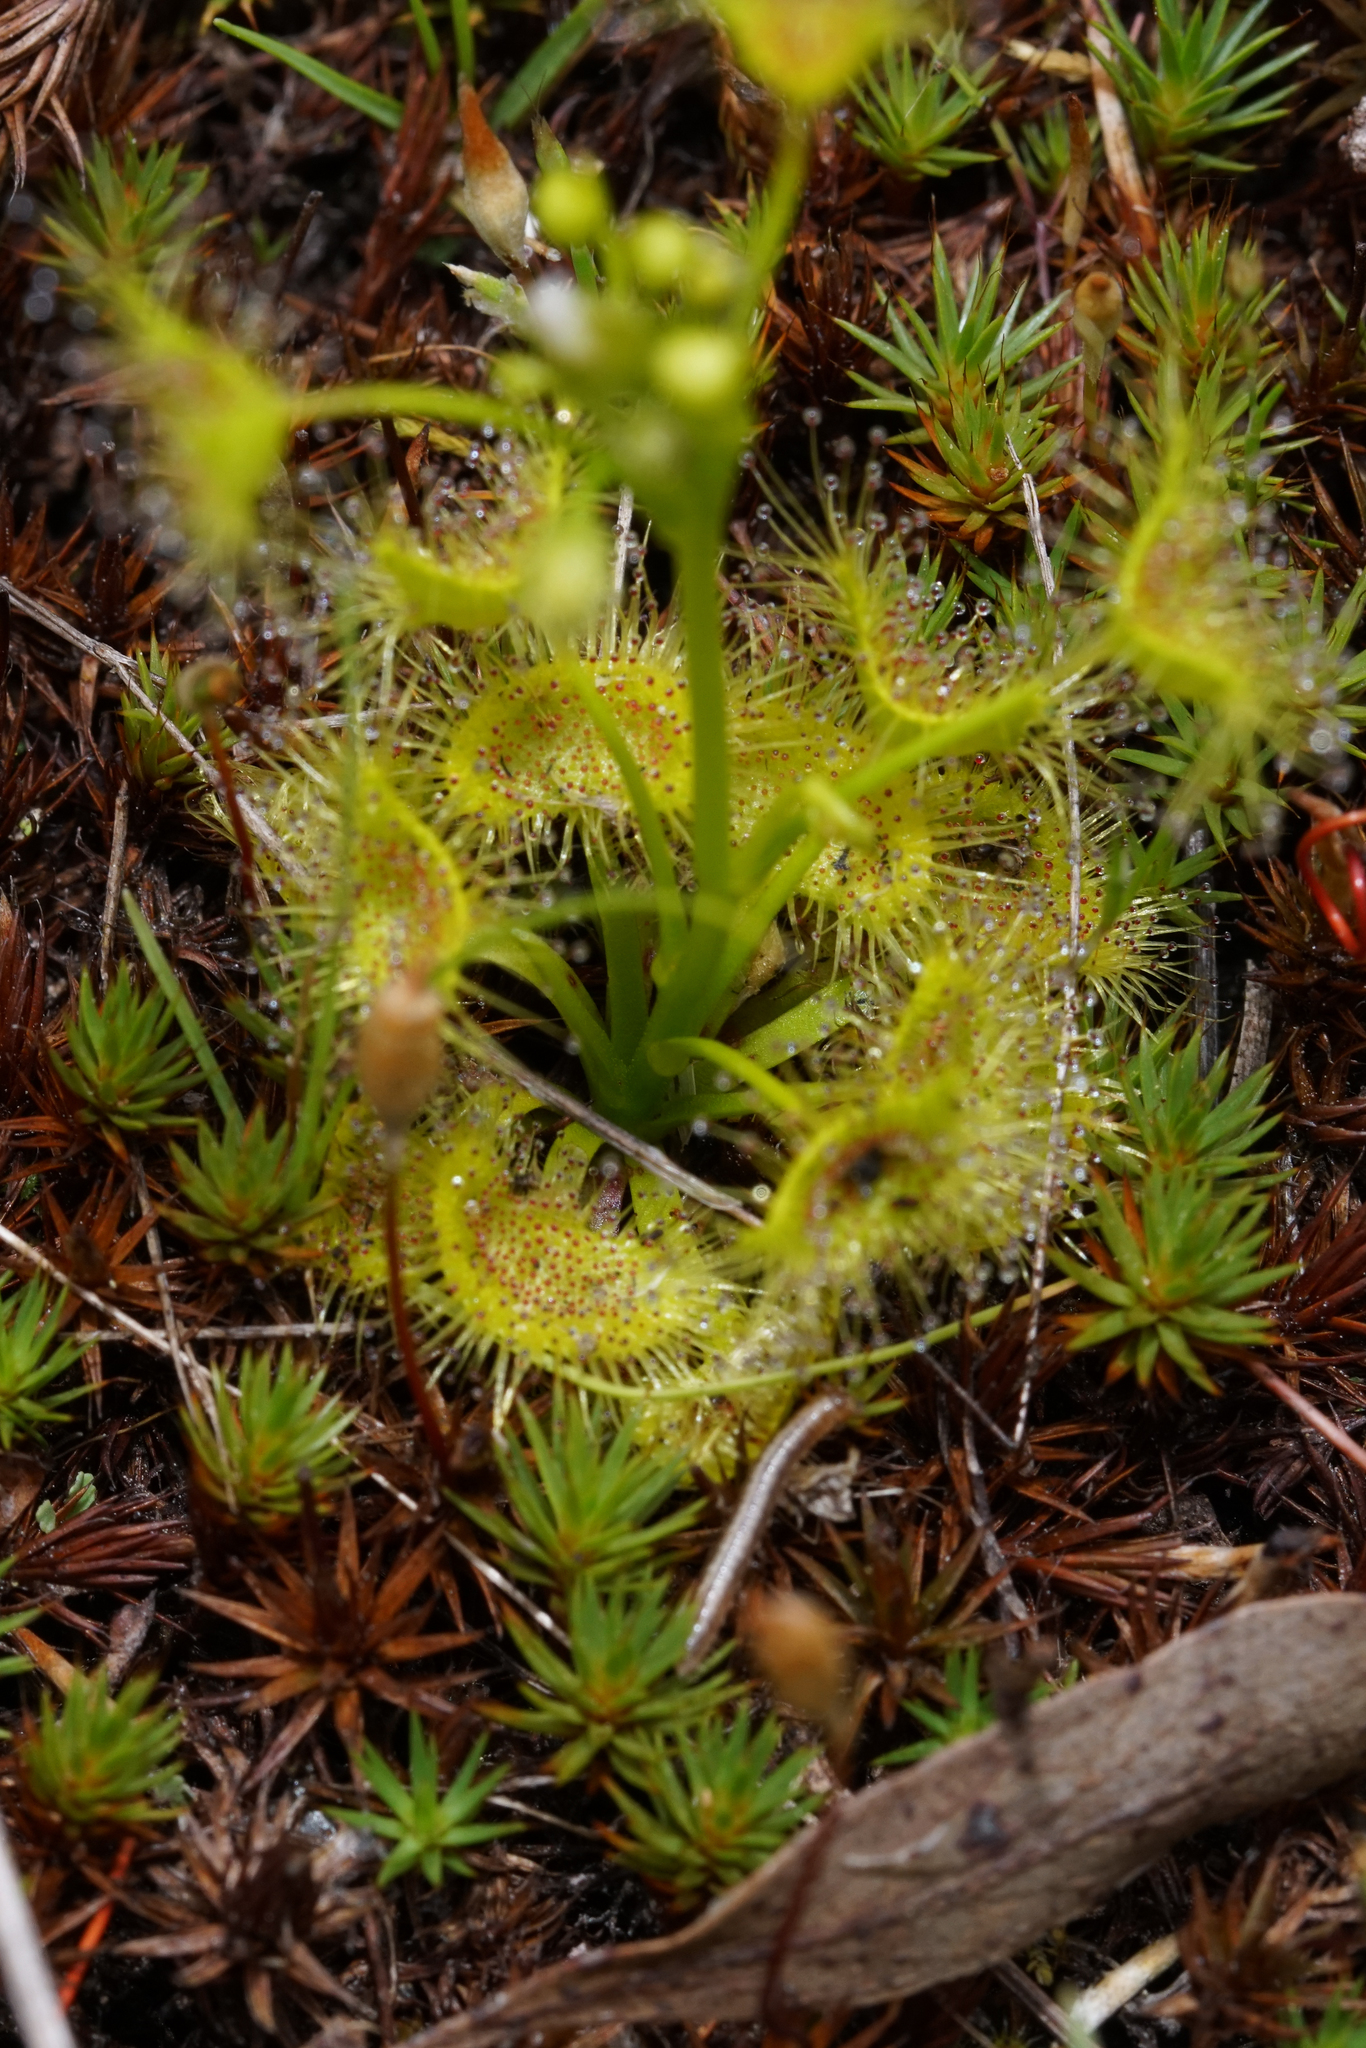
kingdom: Plantae
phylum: Tracheophyta
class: Magnoliopsida
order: Caryophyllales
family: Droseraceae
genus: Drosera
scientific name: Drosera hookeri
